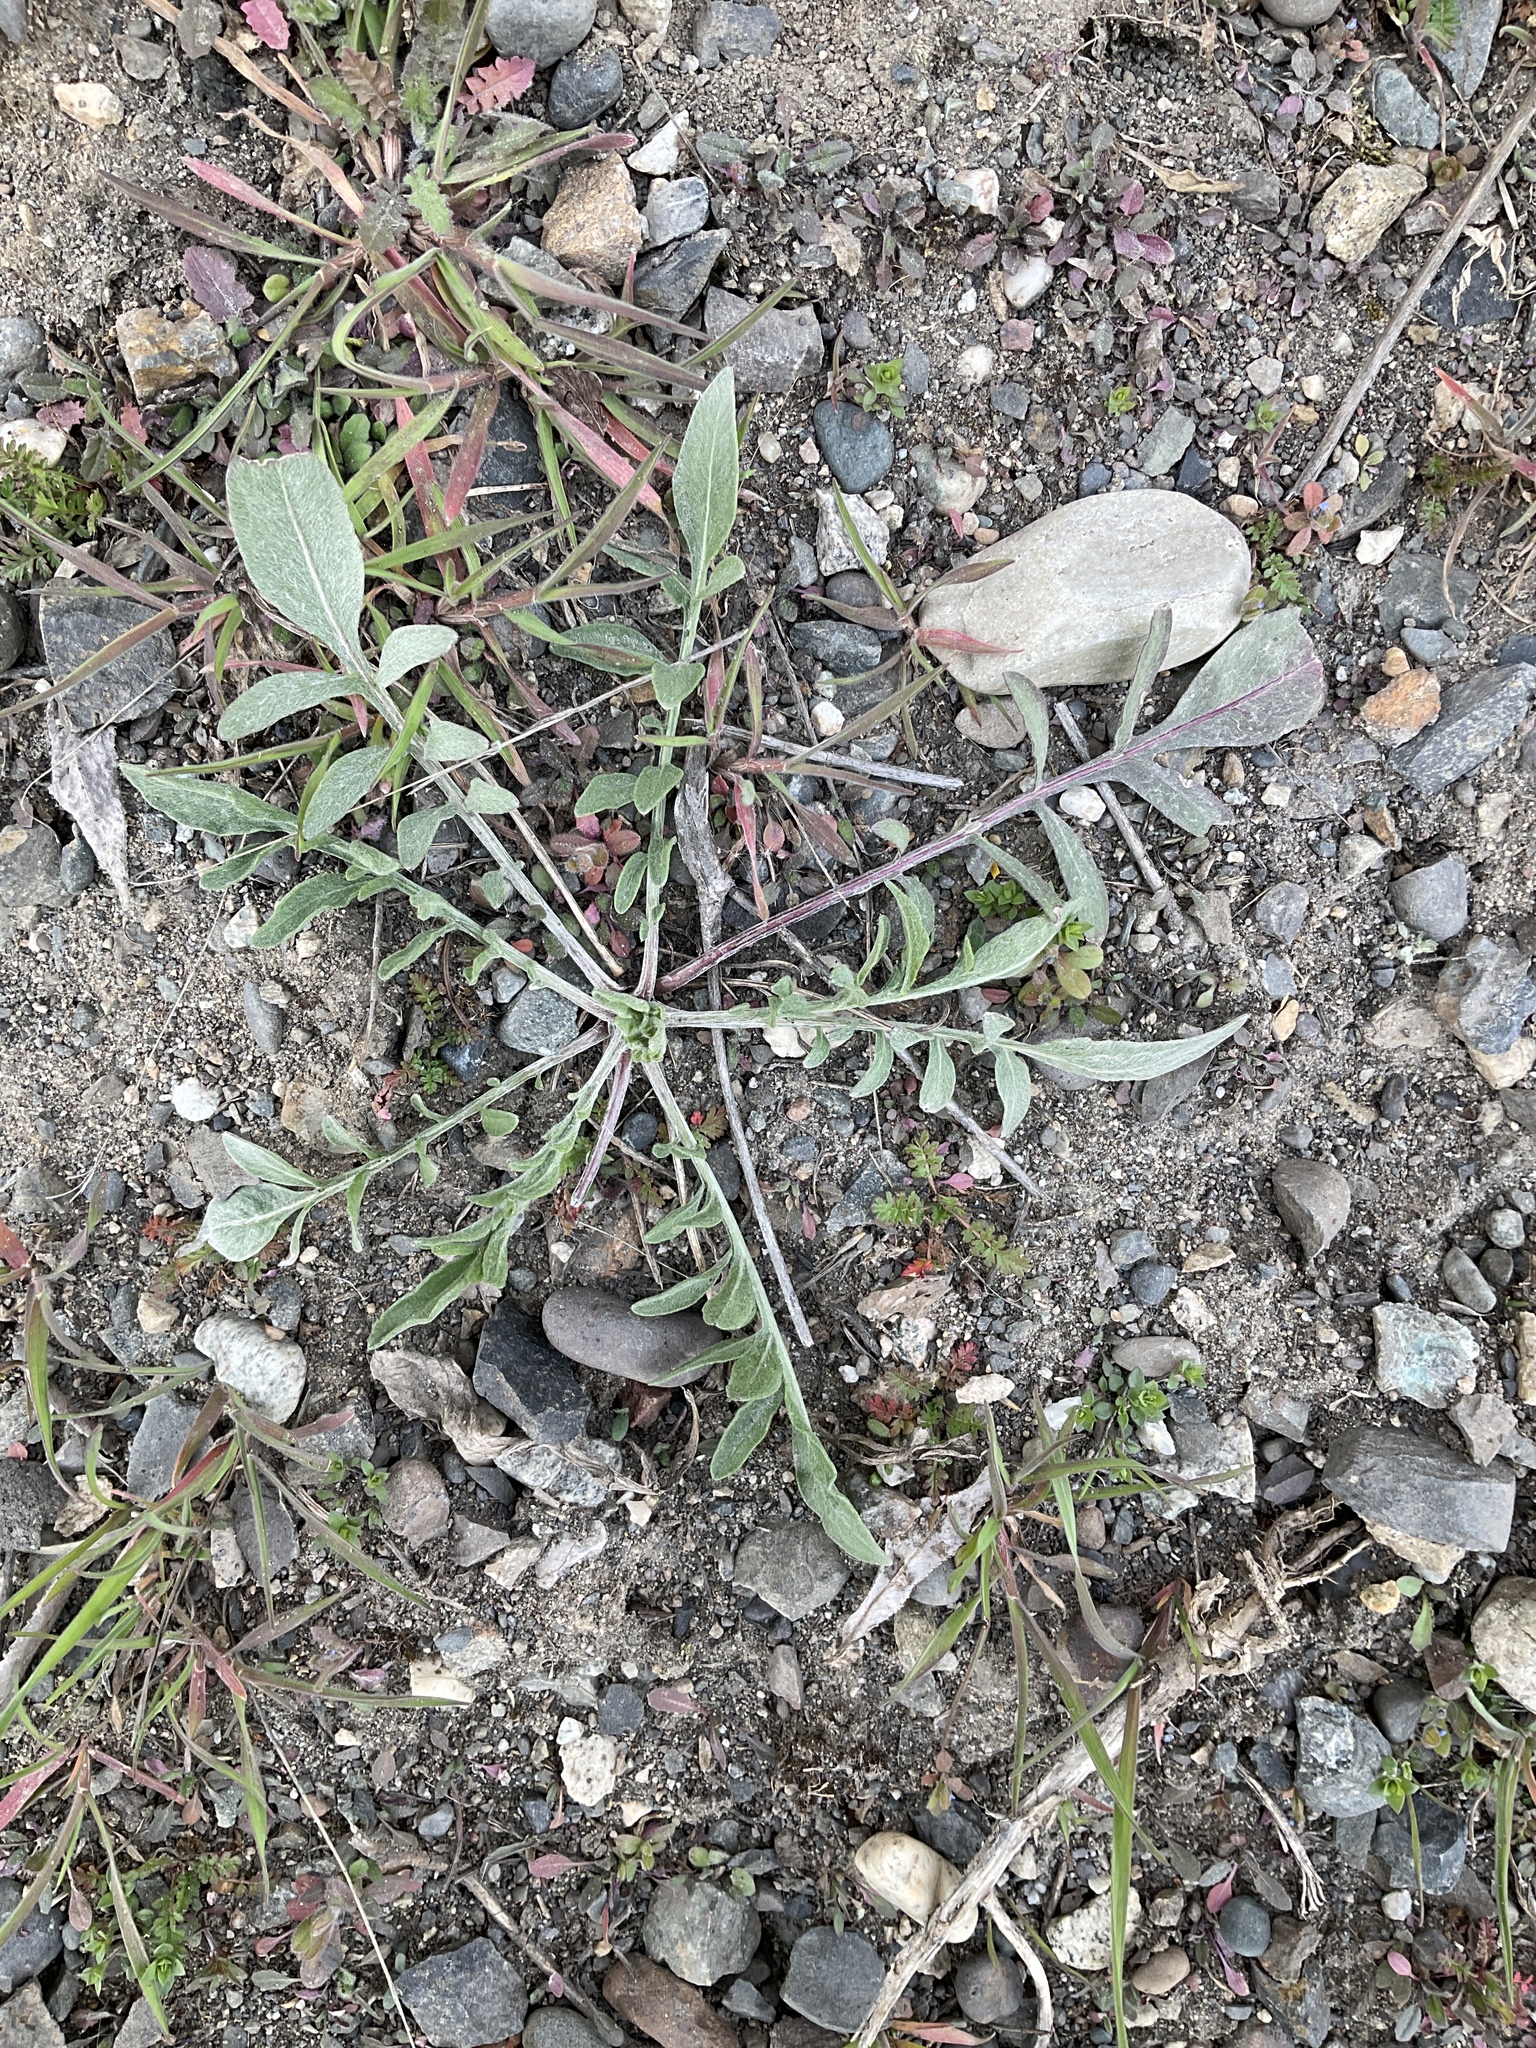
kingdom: Plantae
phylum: Tracheophyta
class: Magnoliopsida
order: Asterales
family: Asteraceae
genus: Centaurea
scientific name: Centaurea stoebe
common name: Spotted knapweed
